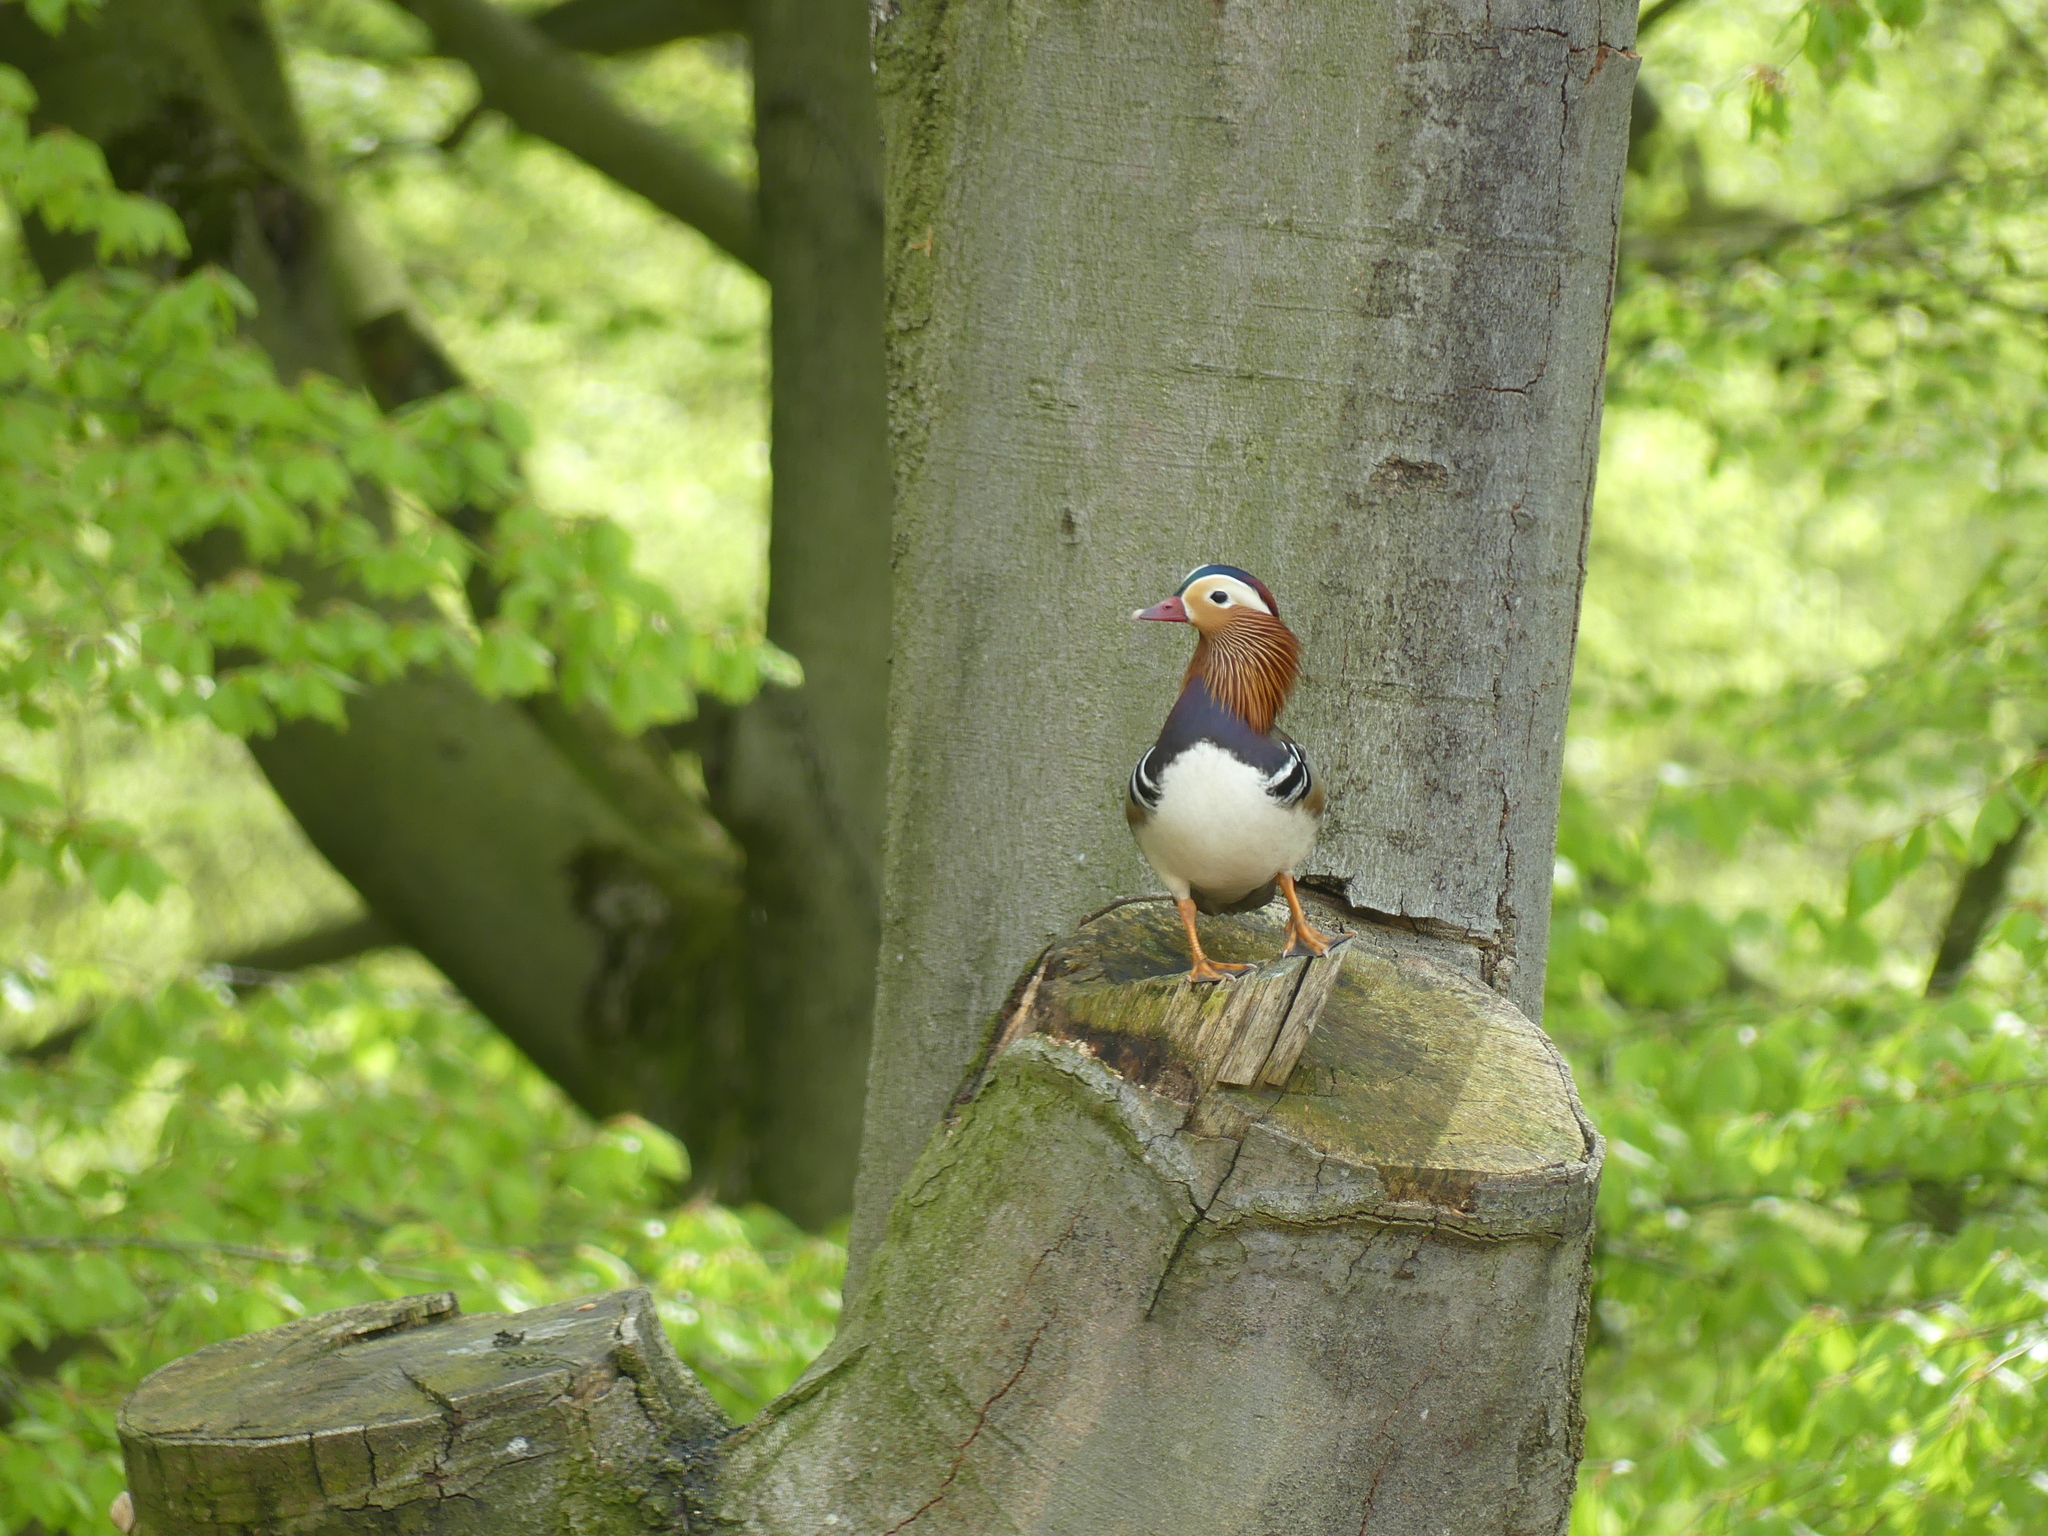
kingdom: Animalia
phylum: Chordata
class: Aves
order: Anseriformes
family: Anatidae
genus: Aix
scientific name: Aix galericulata
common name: Mandarin duck
